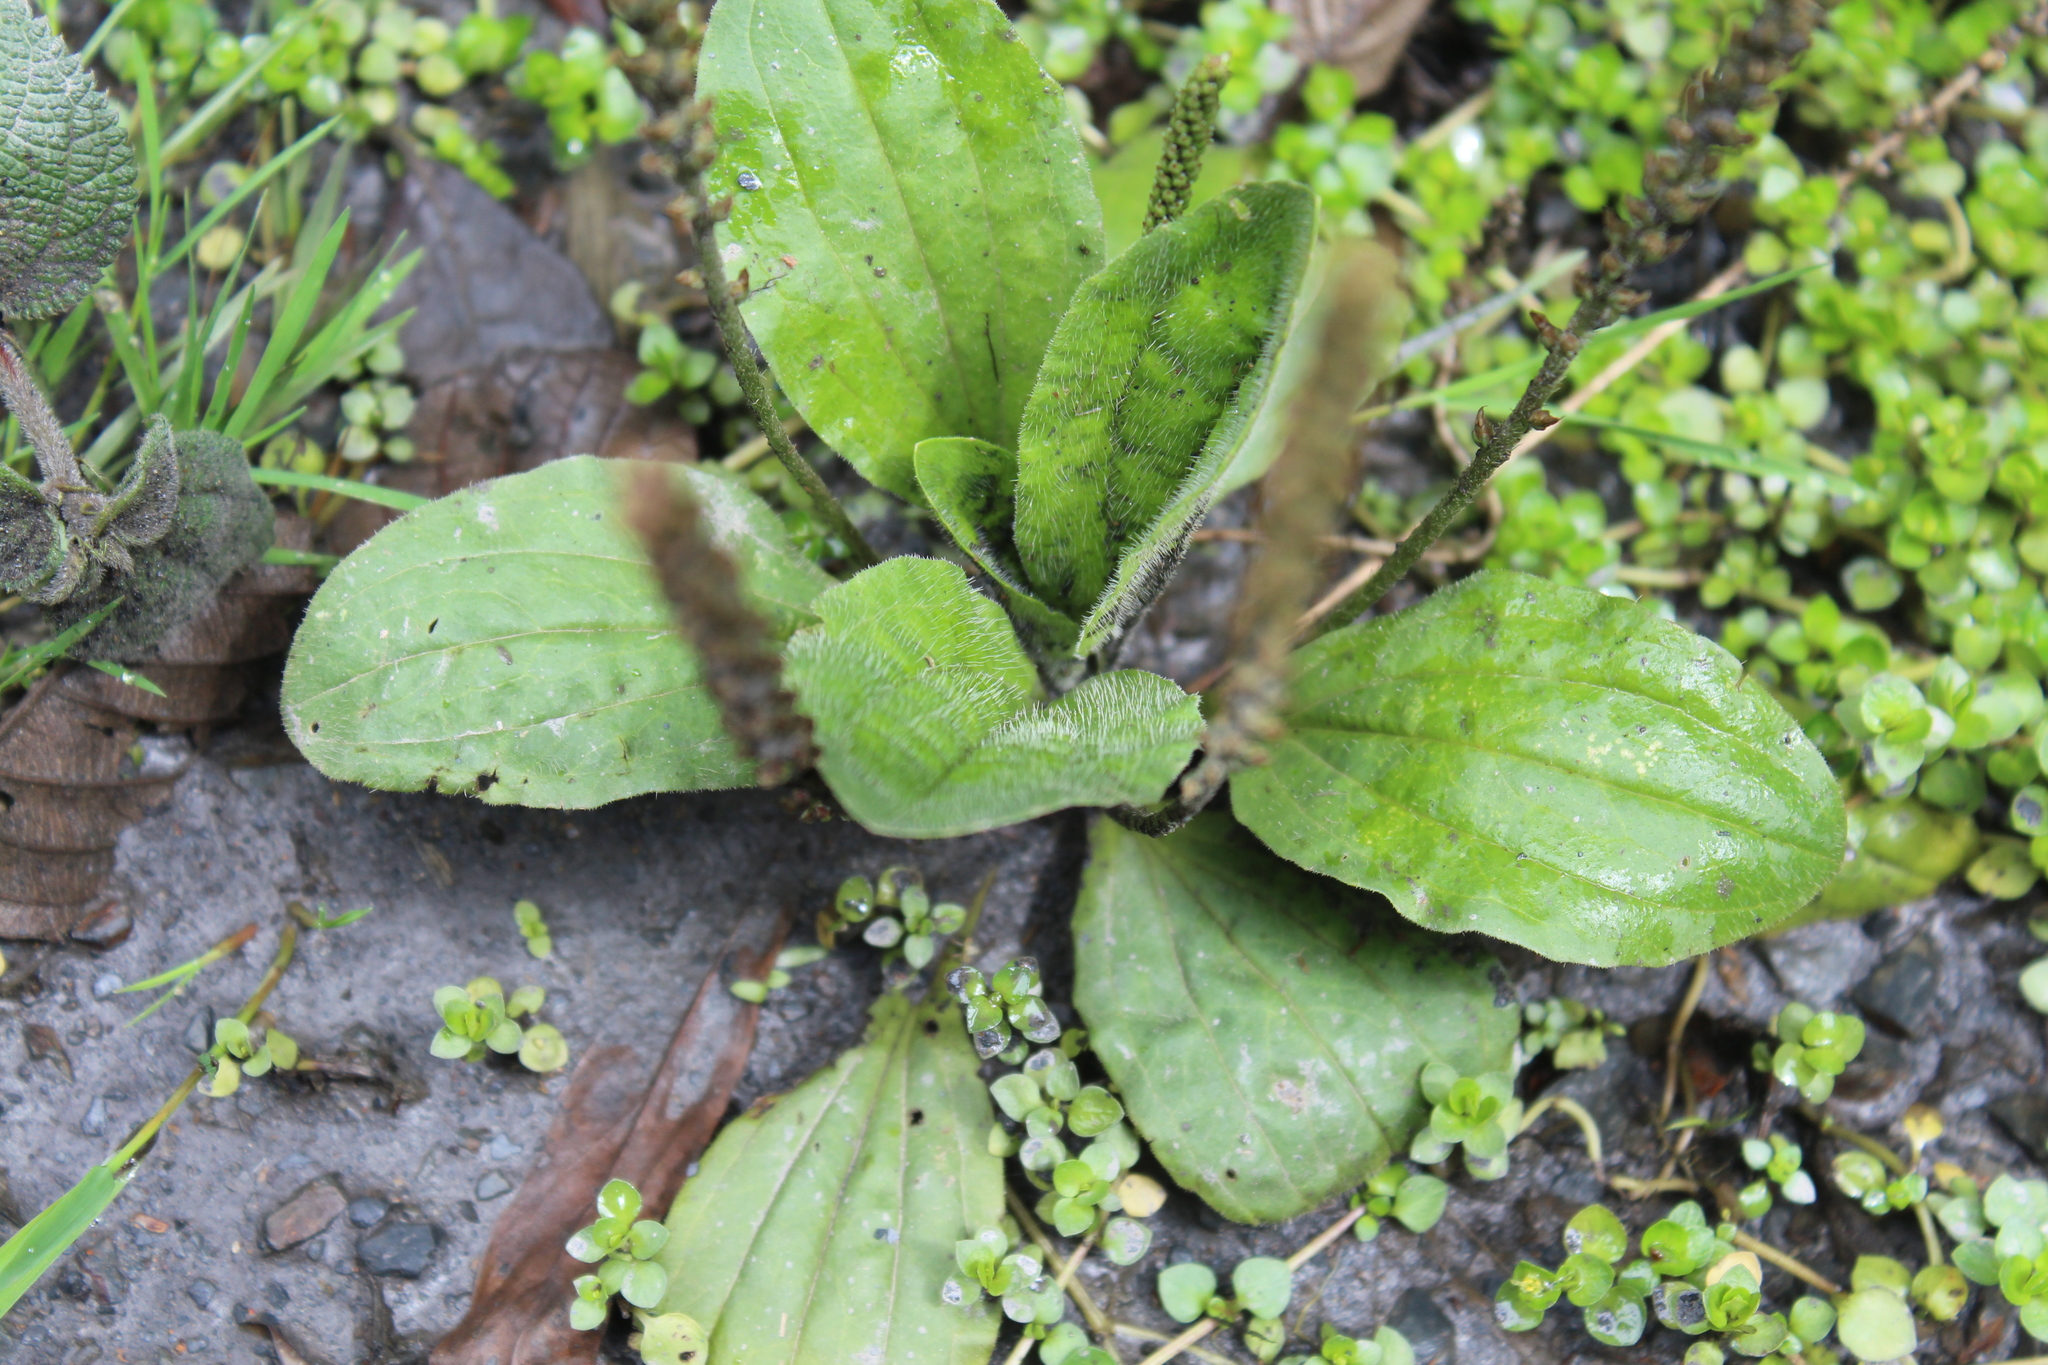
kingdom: Plantae
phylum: Tracheophyta
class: Magnoliopsida
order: Lamiales
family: Plantaginaceae
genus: Plantago
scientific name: Plantago major
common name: Common plantain
